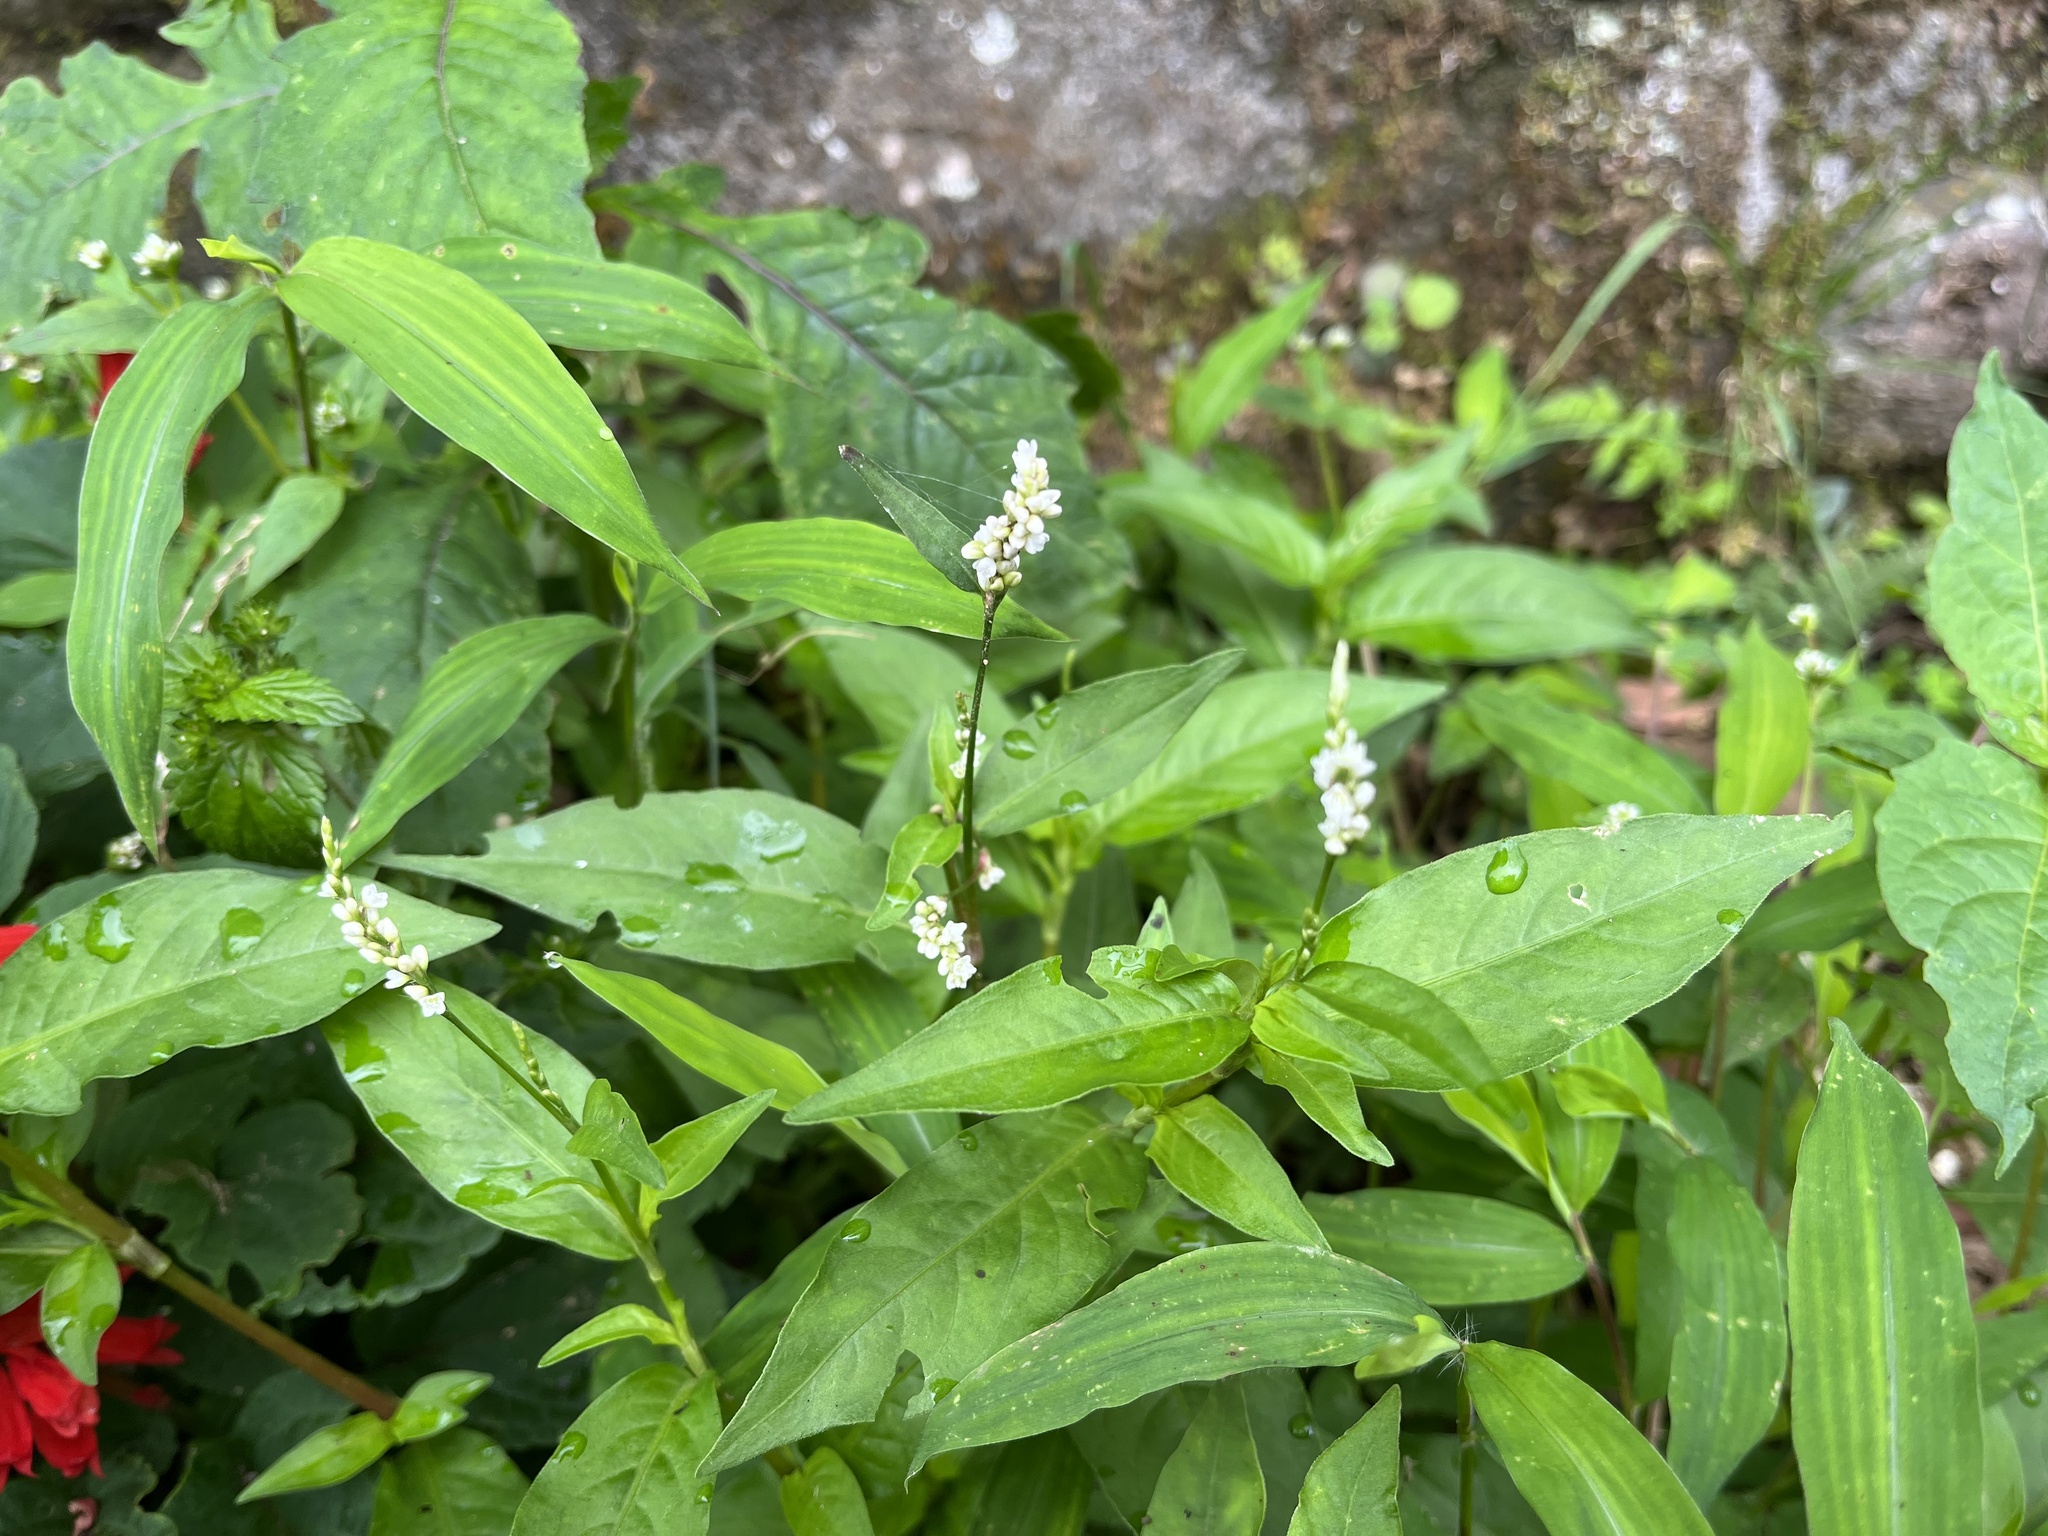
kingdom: Plantae
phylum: Tracheophyta
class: Magnoliopsida
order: Caryophyllales
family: Polygonaceae
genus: Persicaria
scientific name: Persicaria jucunda
